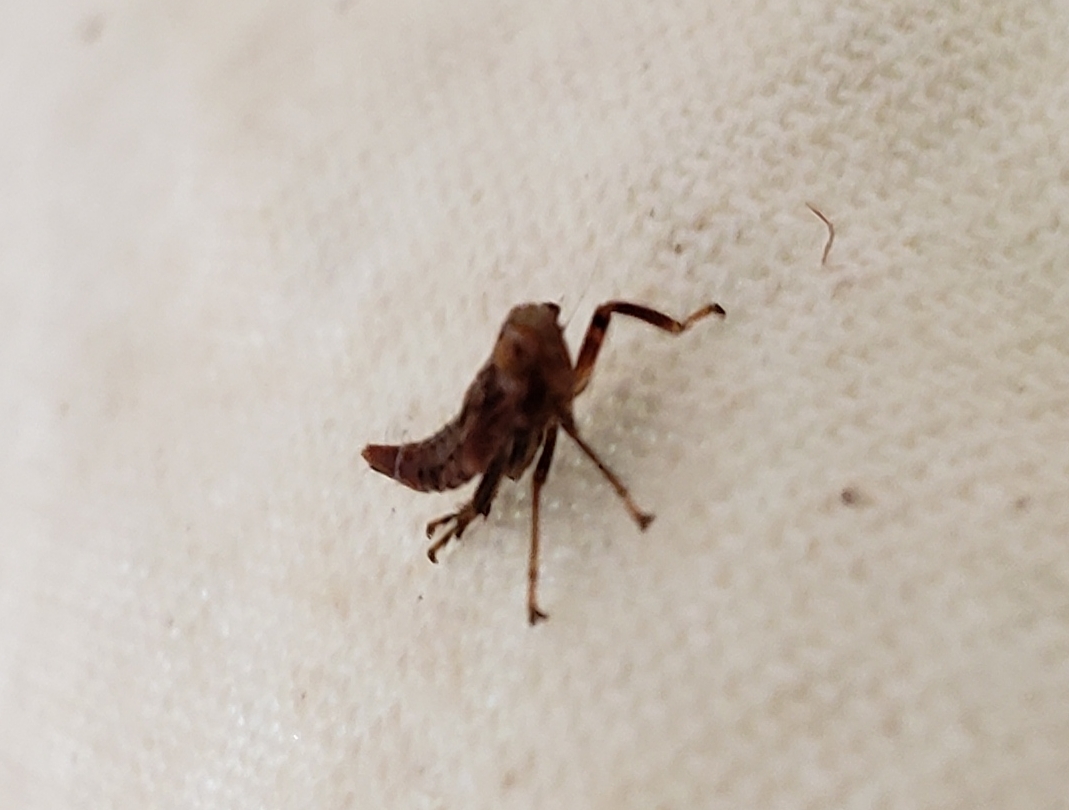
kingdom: Animalia
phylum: Arthropoda
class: Insecta
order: Hemiptera
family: Cicadellidae
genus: Jikradia
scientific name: Jikradia olitoria
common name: Coppery leafhopper
